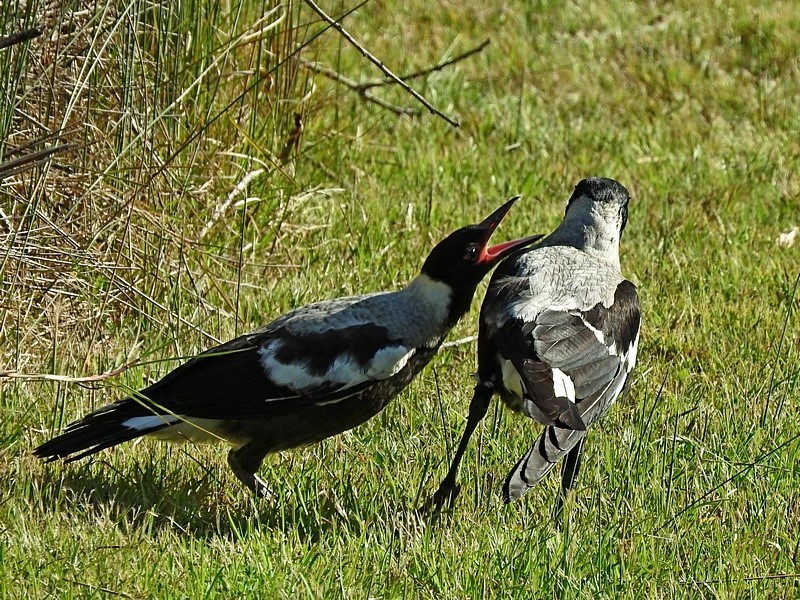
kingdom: Animalia
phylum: Chordata
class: Aves
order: Passeriformes
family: Cracticidae
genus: Gymnorhina
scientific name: Gymnorhina tibicen
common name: Australian magpie
